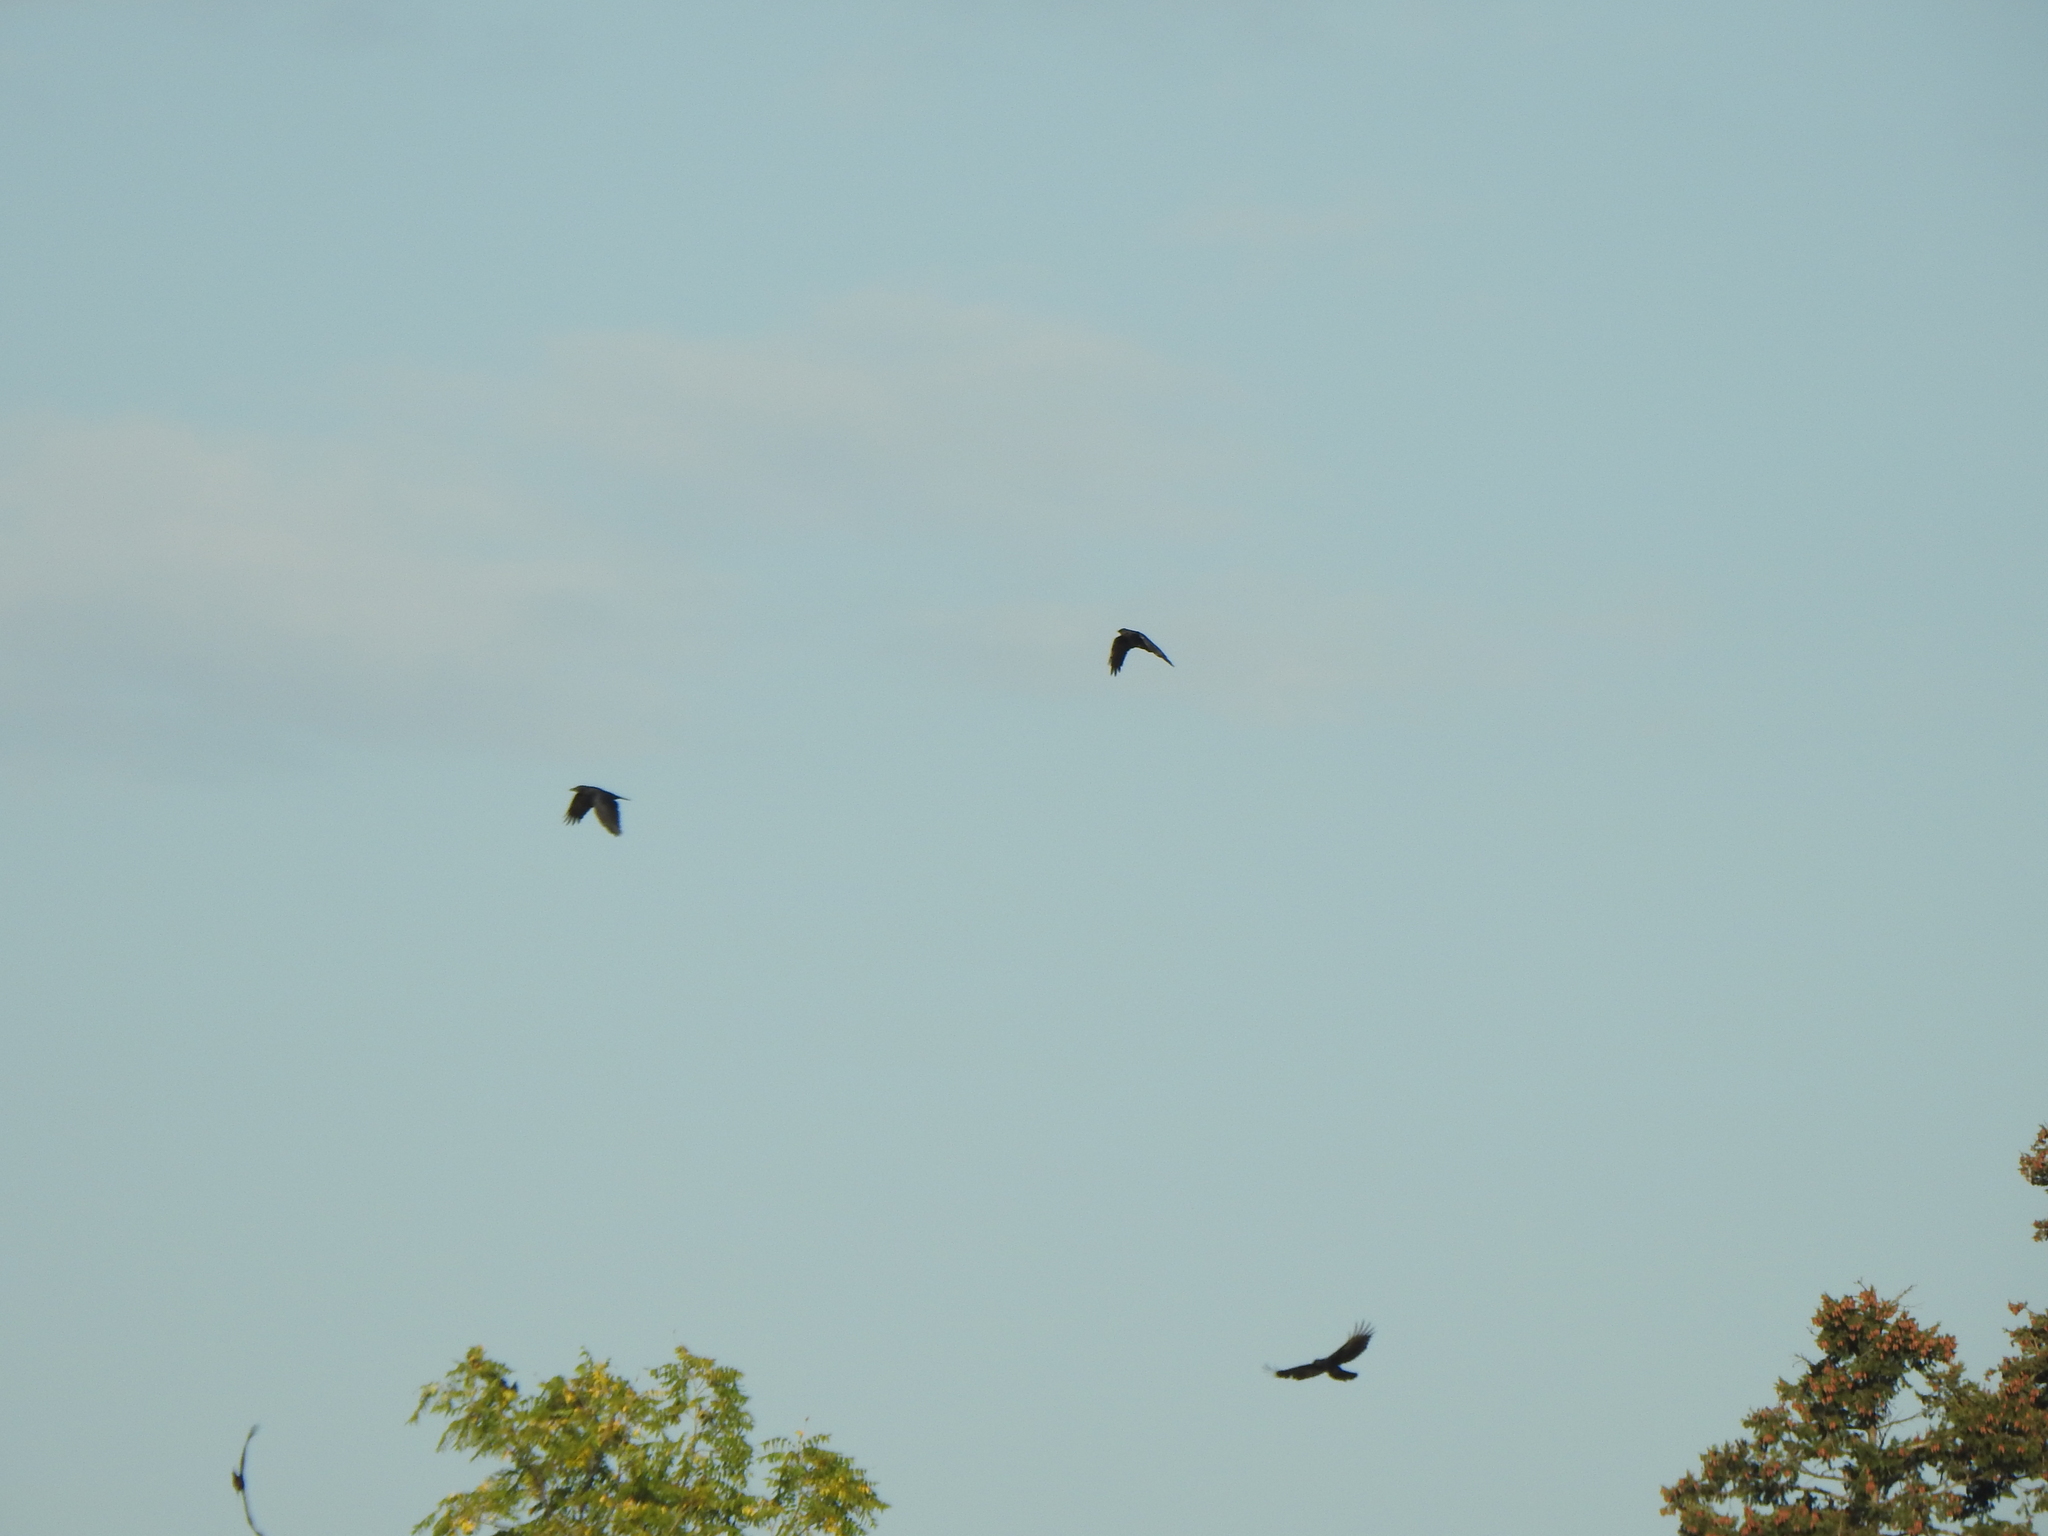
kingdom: Animalia
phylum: Chordata
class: Aves
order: Passeriformes
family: Corvidae
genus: Corvus
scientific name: Corvus brachyrhynchos
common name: American crow
